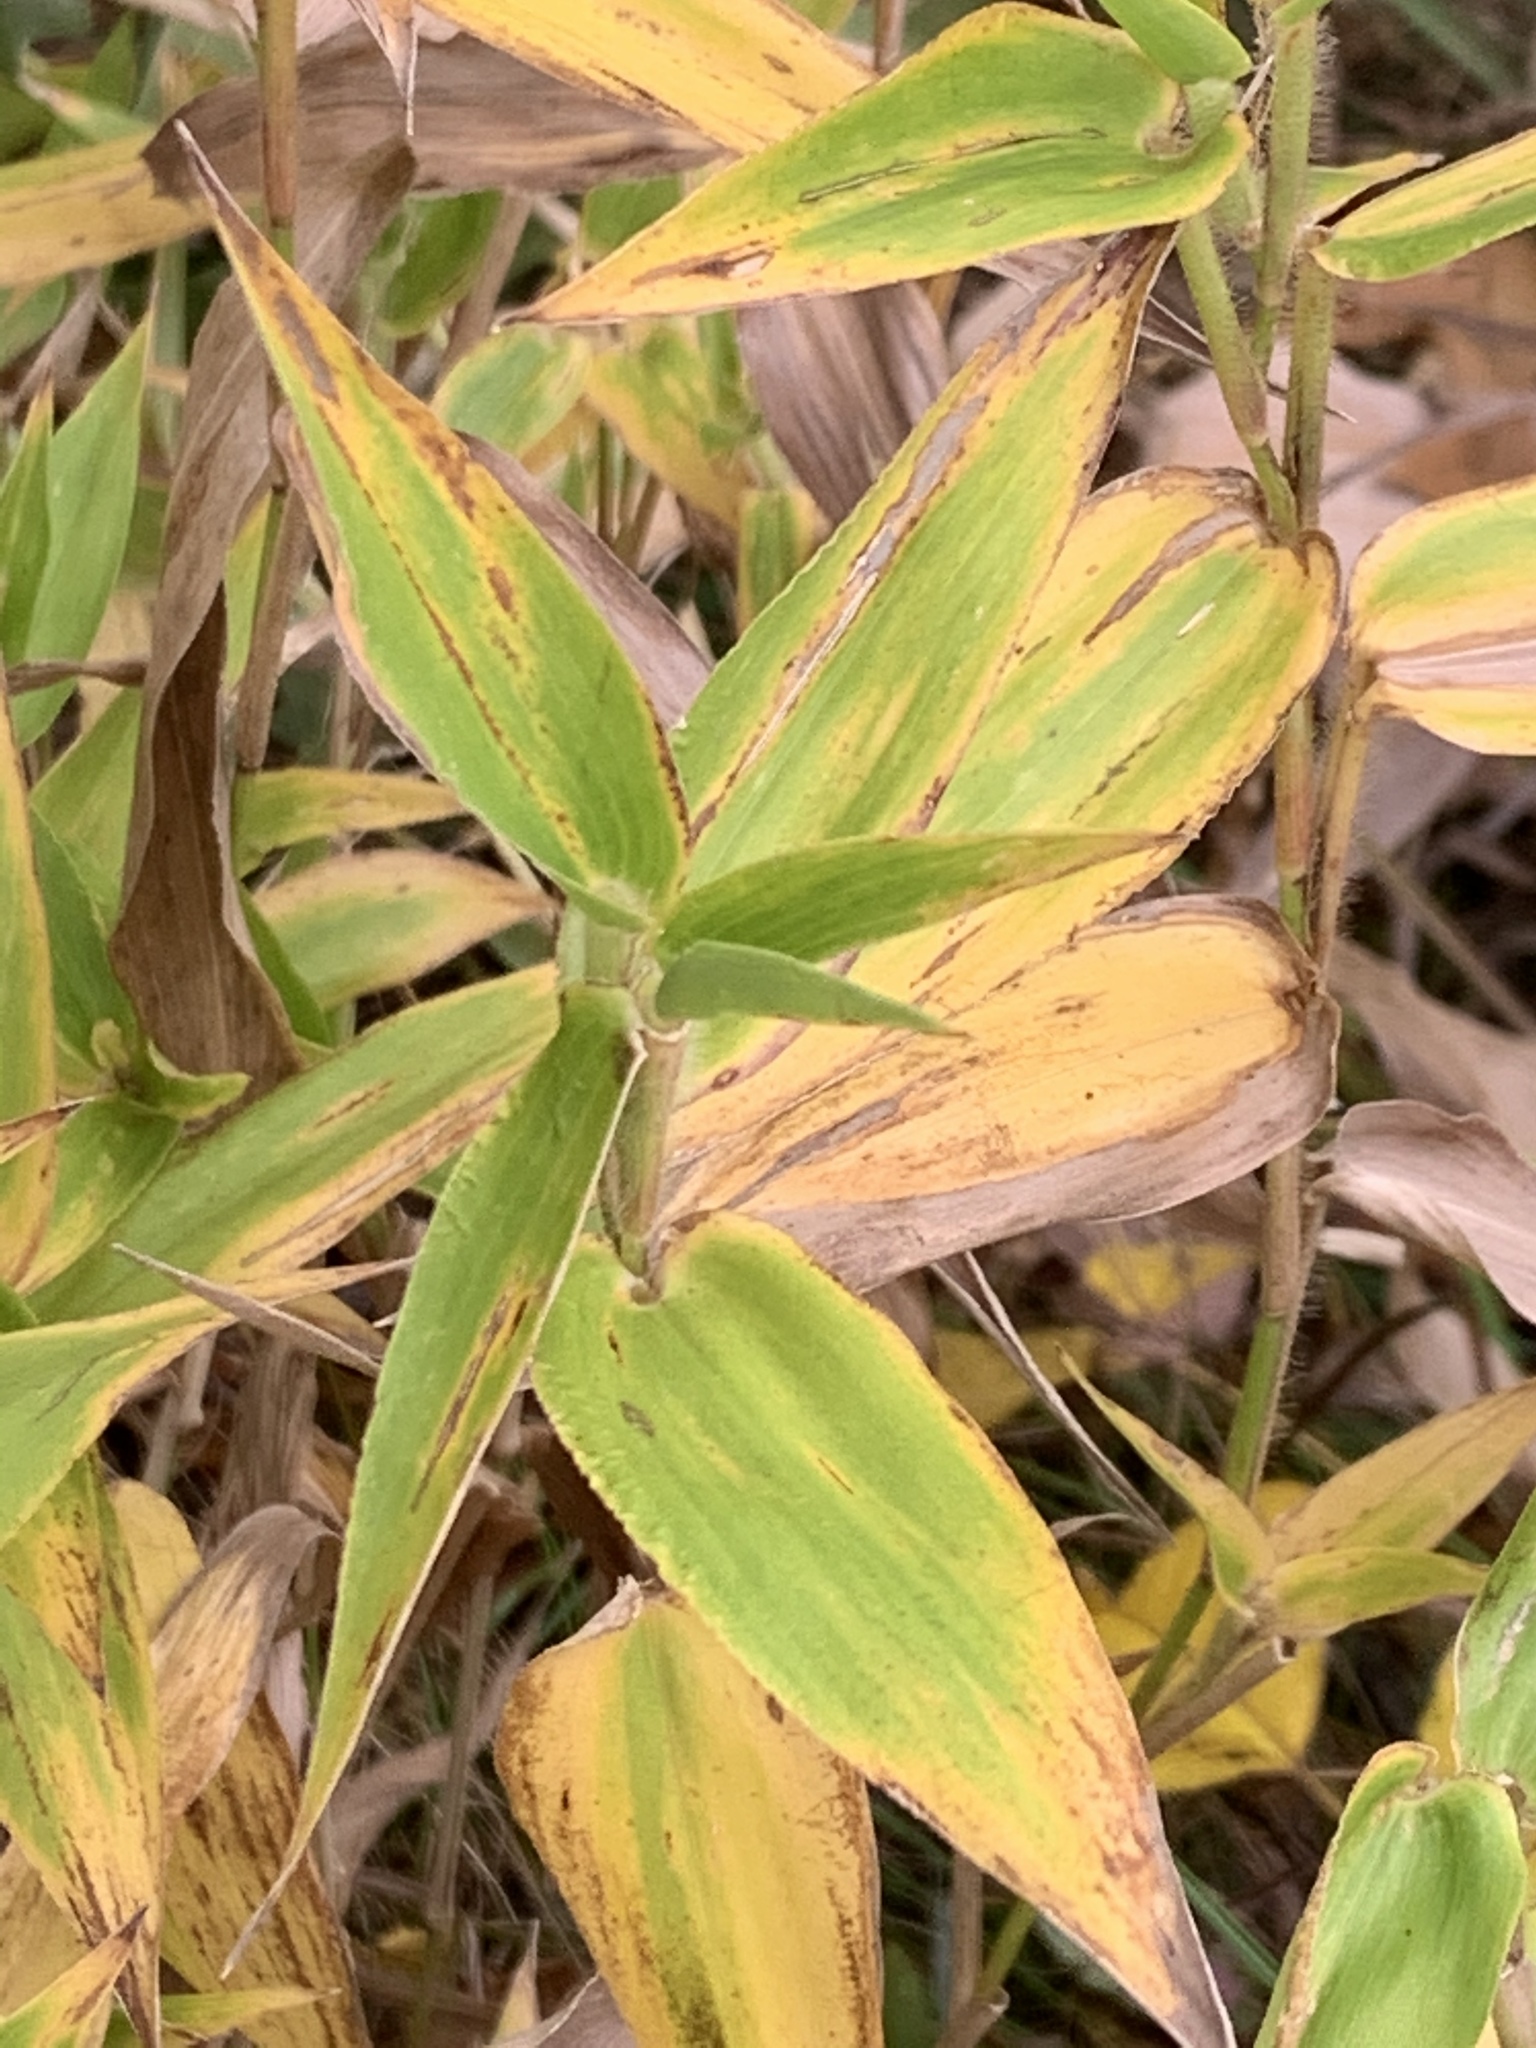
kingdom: Plantae
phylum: Tracheophyta
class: Liliopsida
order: Poales
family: Poaceae
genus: Dichanthelium
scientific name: Dichanthelium clandestinum
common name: Deer-tongue grass
